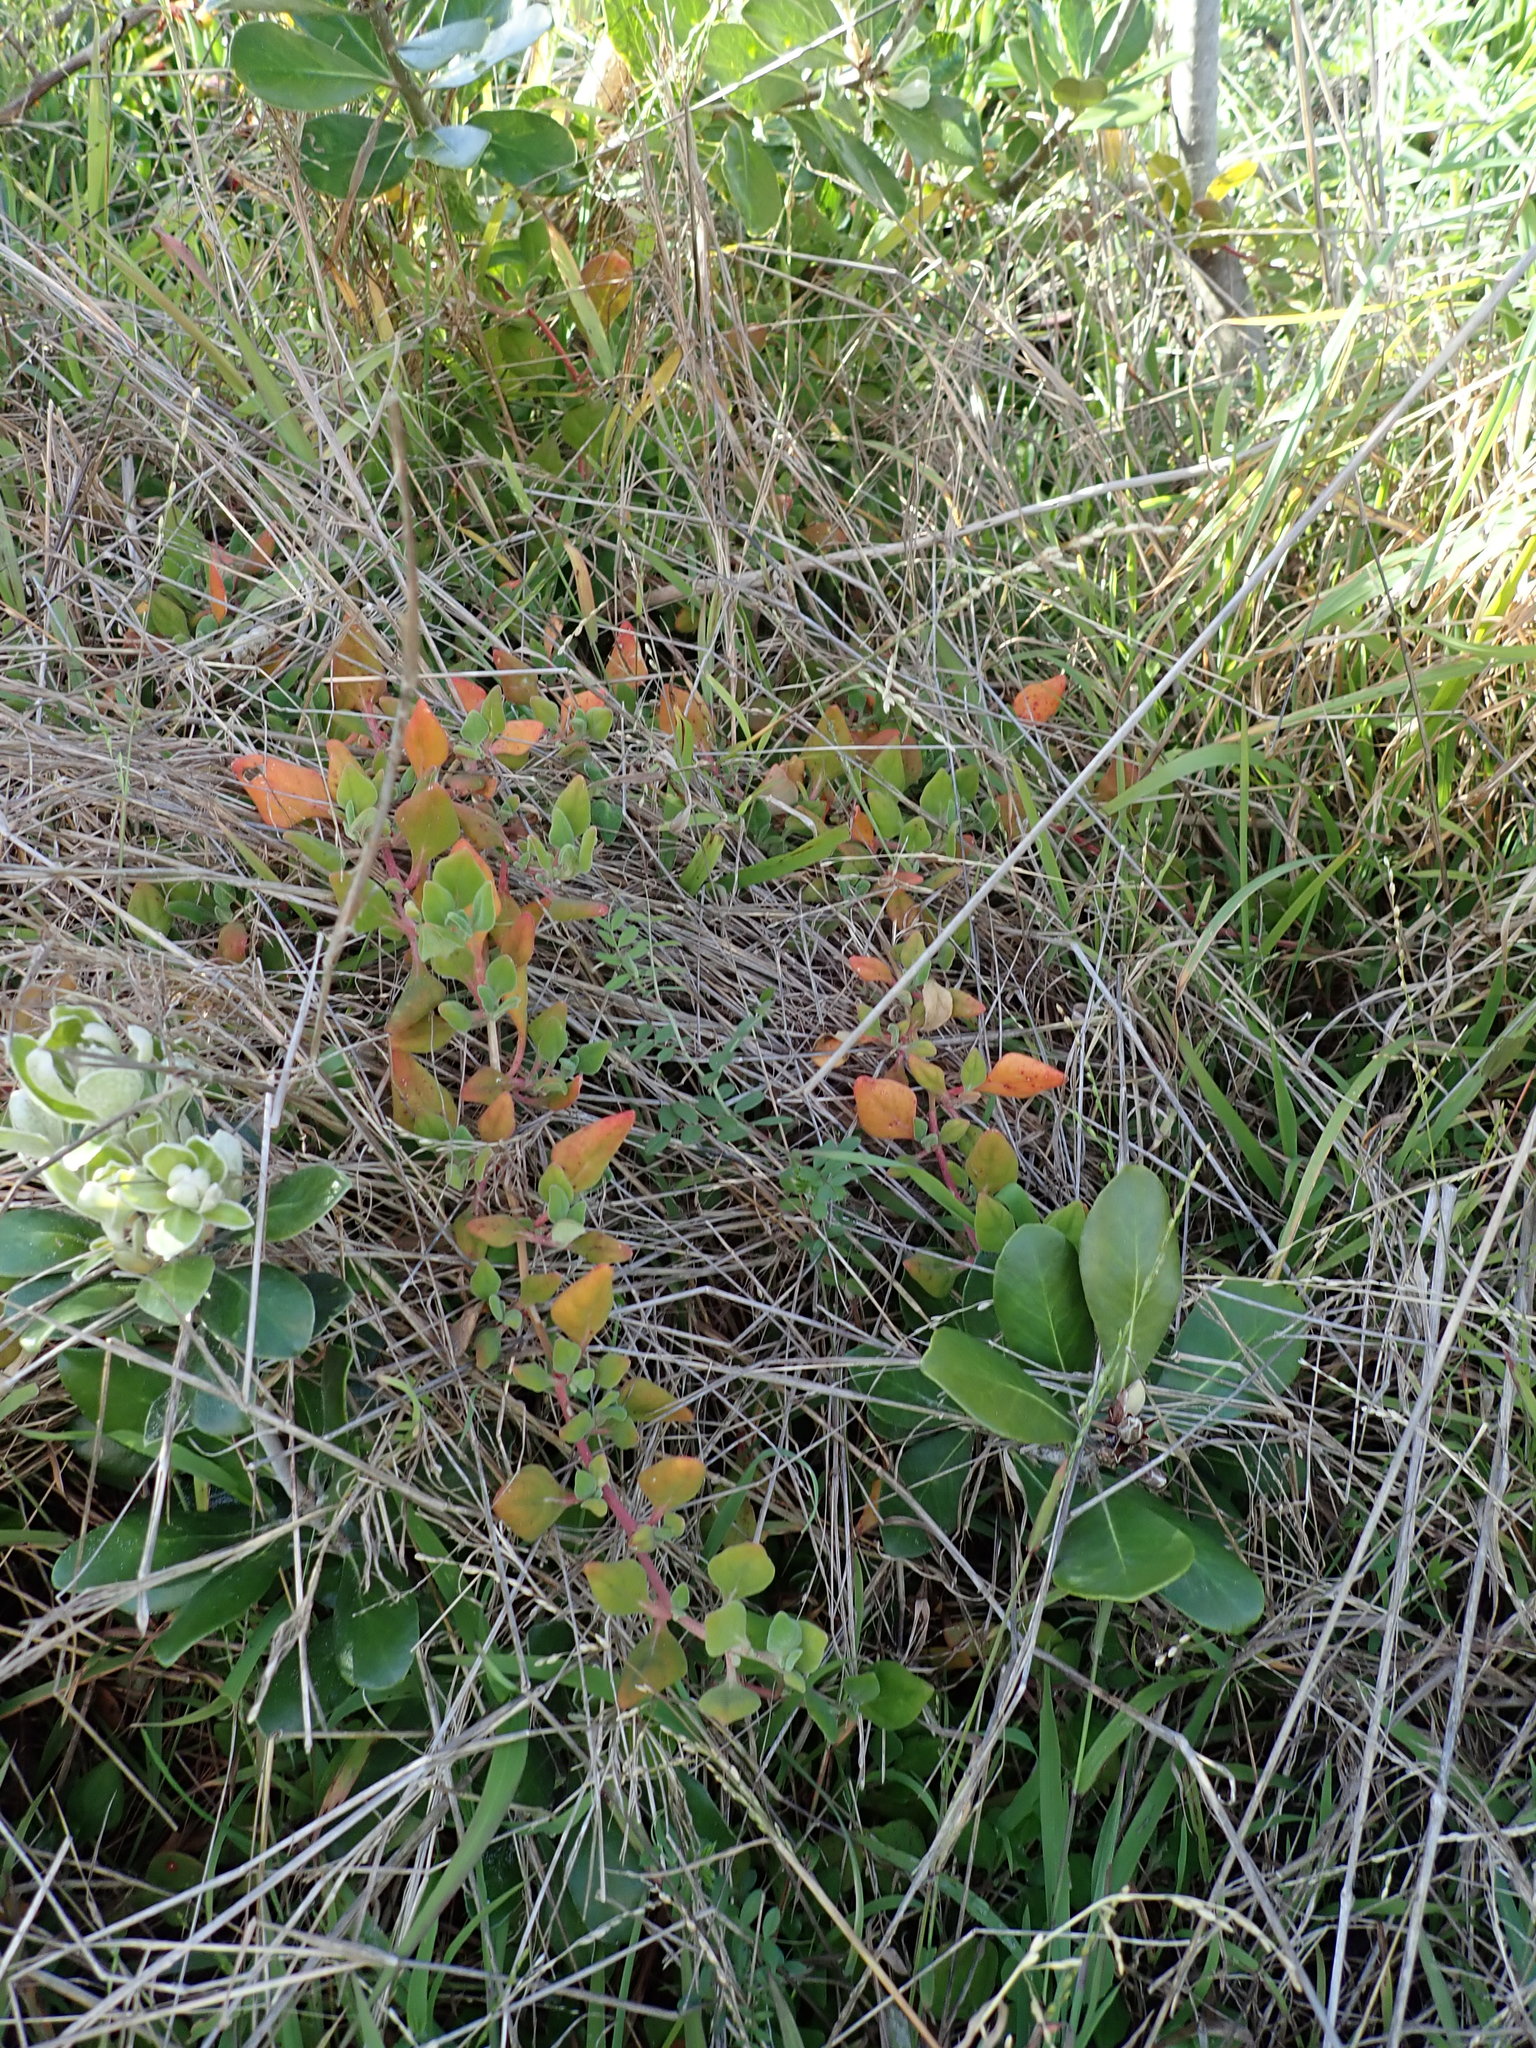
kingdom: Plantae
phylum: Tracheophyta
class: Magnoliopsida
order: Caryophyllales
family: Aizoaceae
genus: Tetragonia
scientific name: Tetragonia implexicoma
